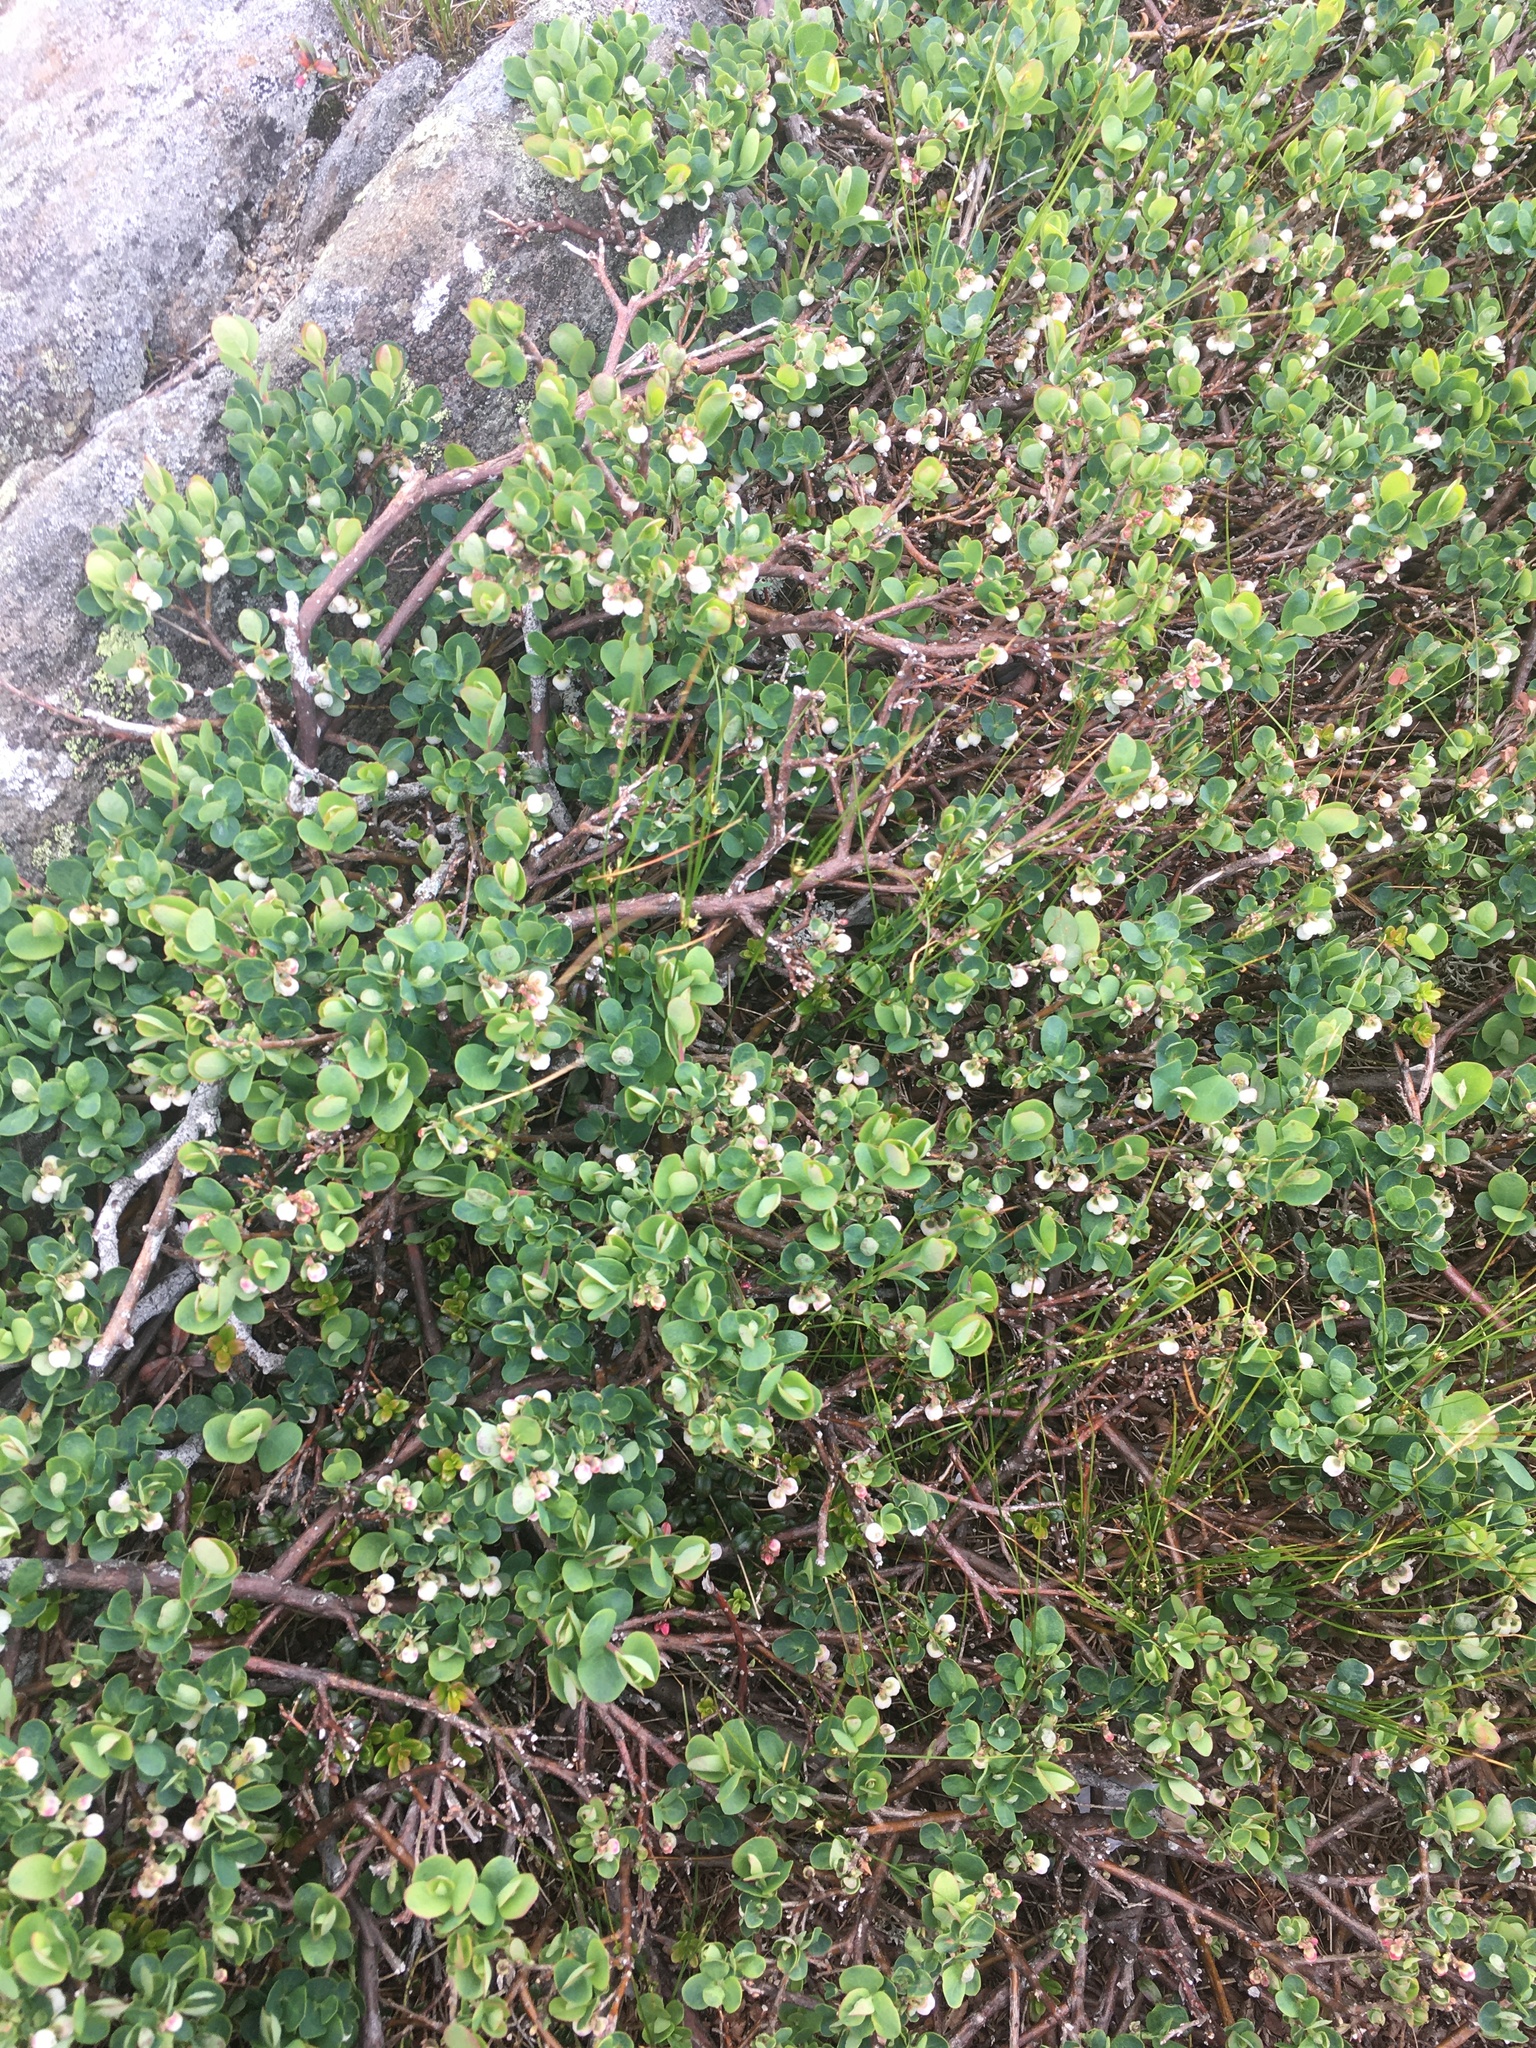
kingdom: Plantae
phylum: Tracheophyta
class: Magnoliopsida
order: Ericales
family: Ericaceae
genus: Vaccinium
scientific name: Vaccinium uliginosum
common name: Bog bilberry
